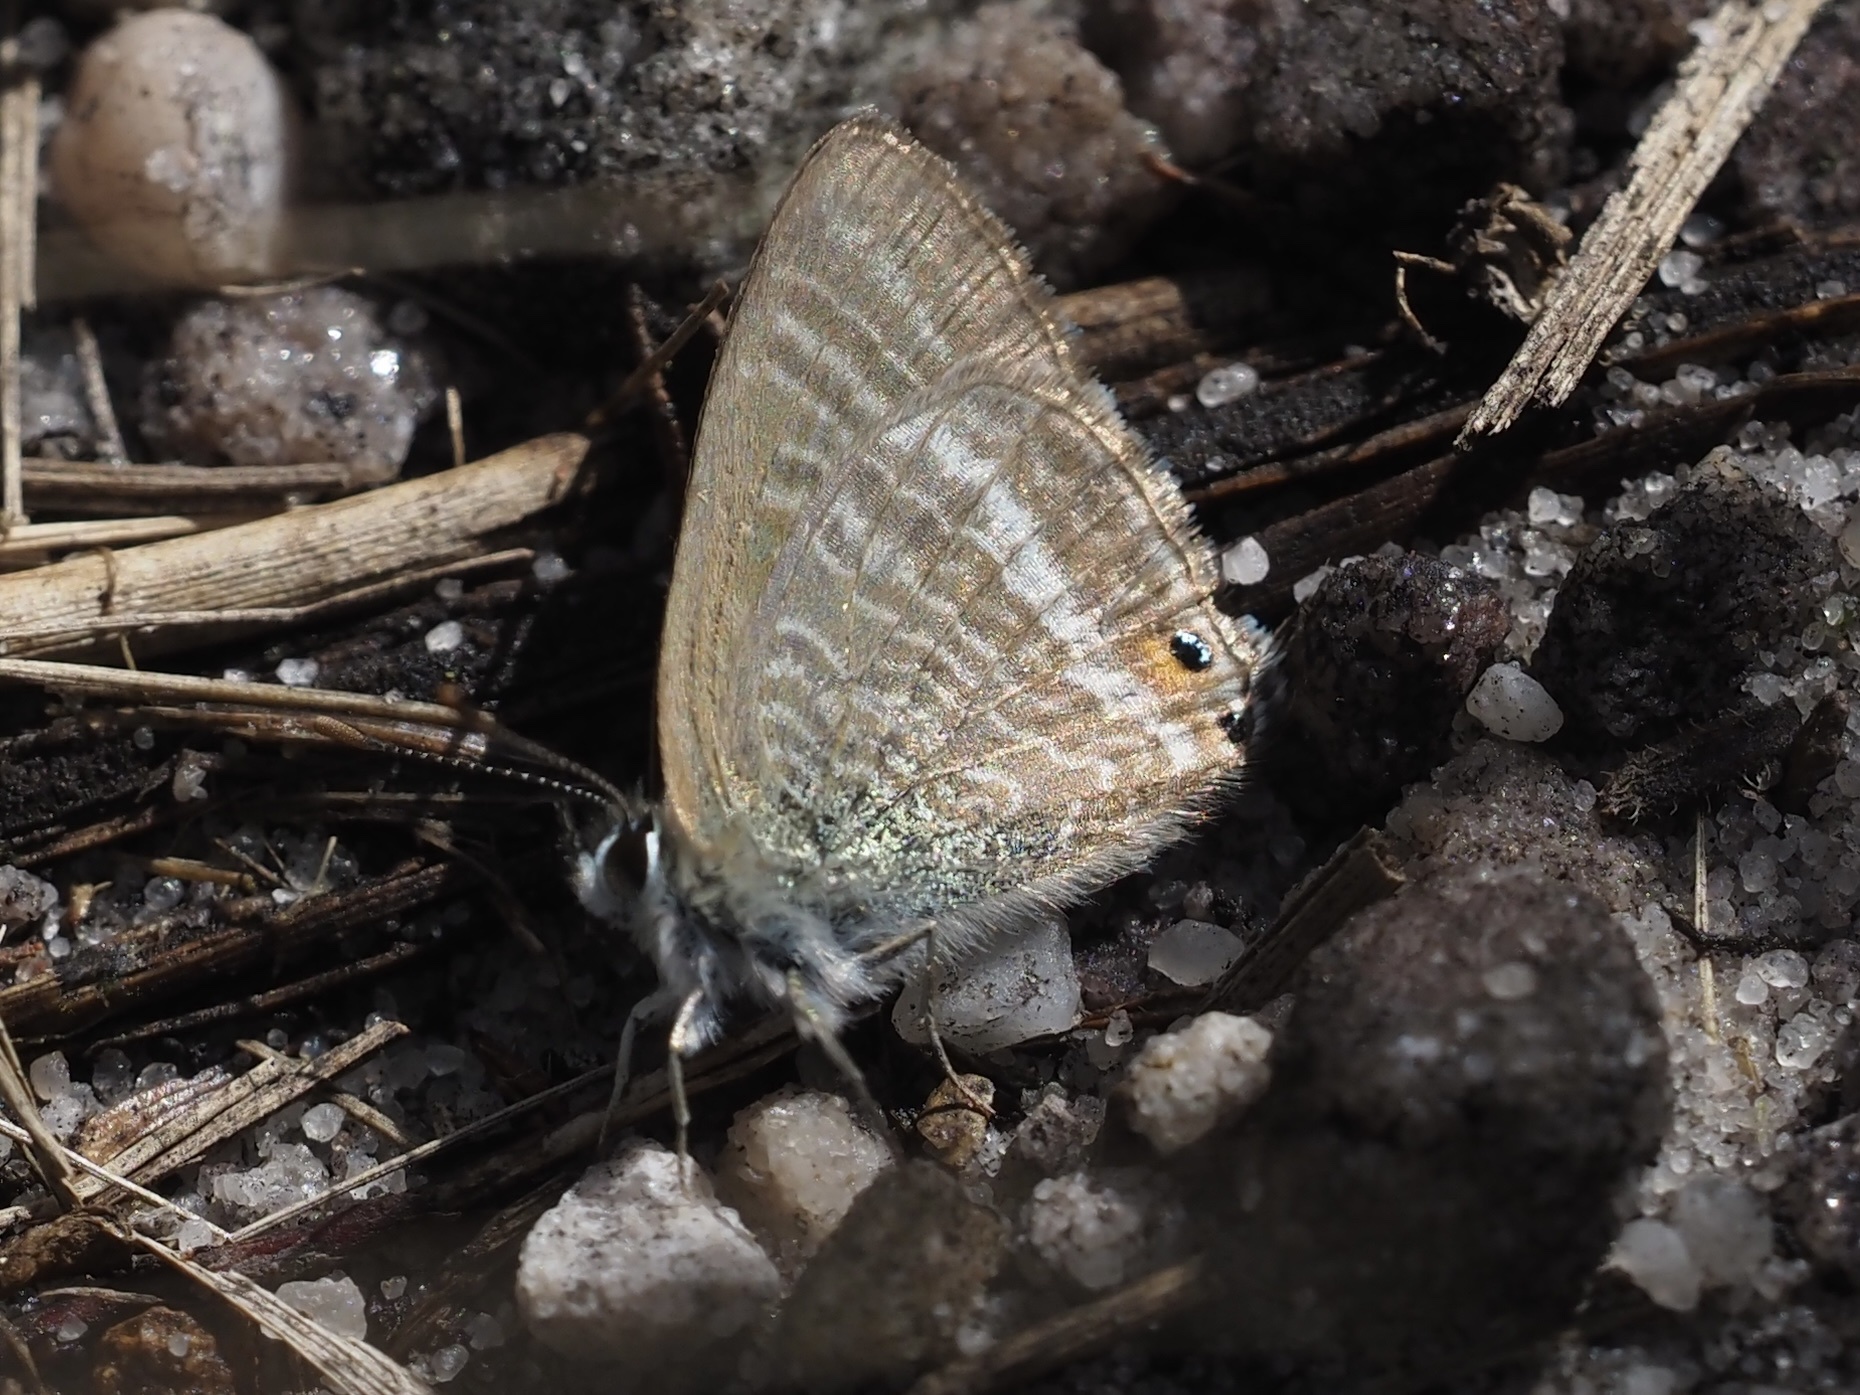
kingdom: Animalia
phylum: Arthropoda
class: Insecta
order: Lepidoptera
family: Lycaenidae
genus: Lampides
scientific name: Lampides boeticus
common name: Long-tailed blue
